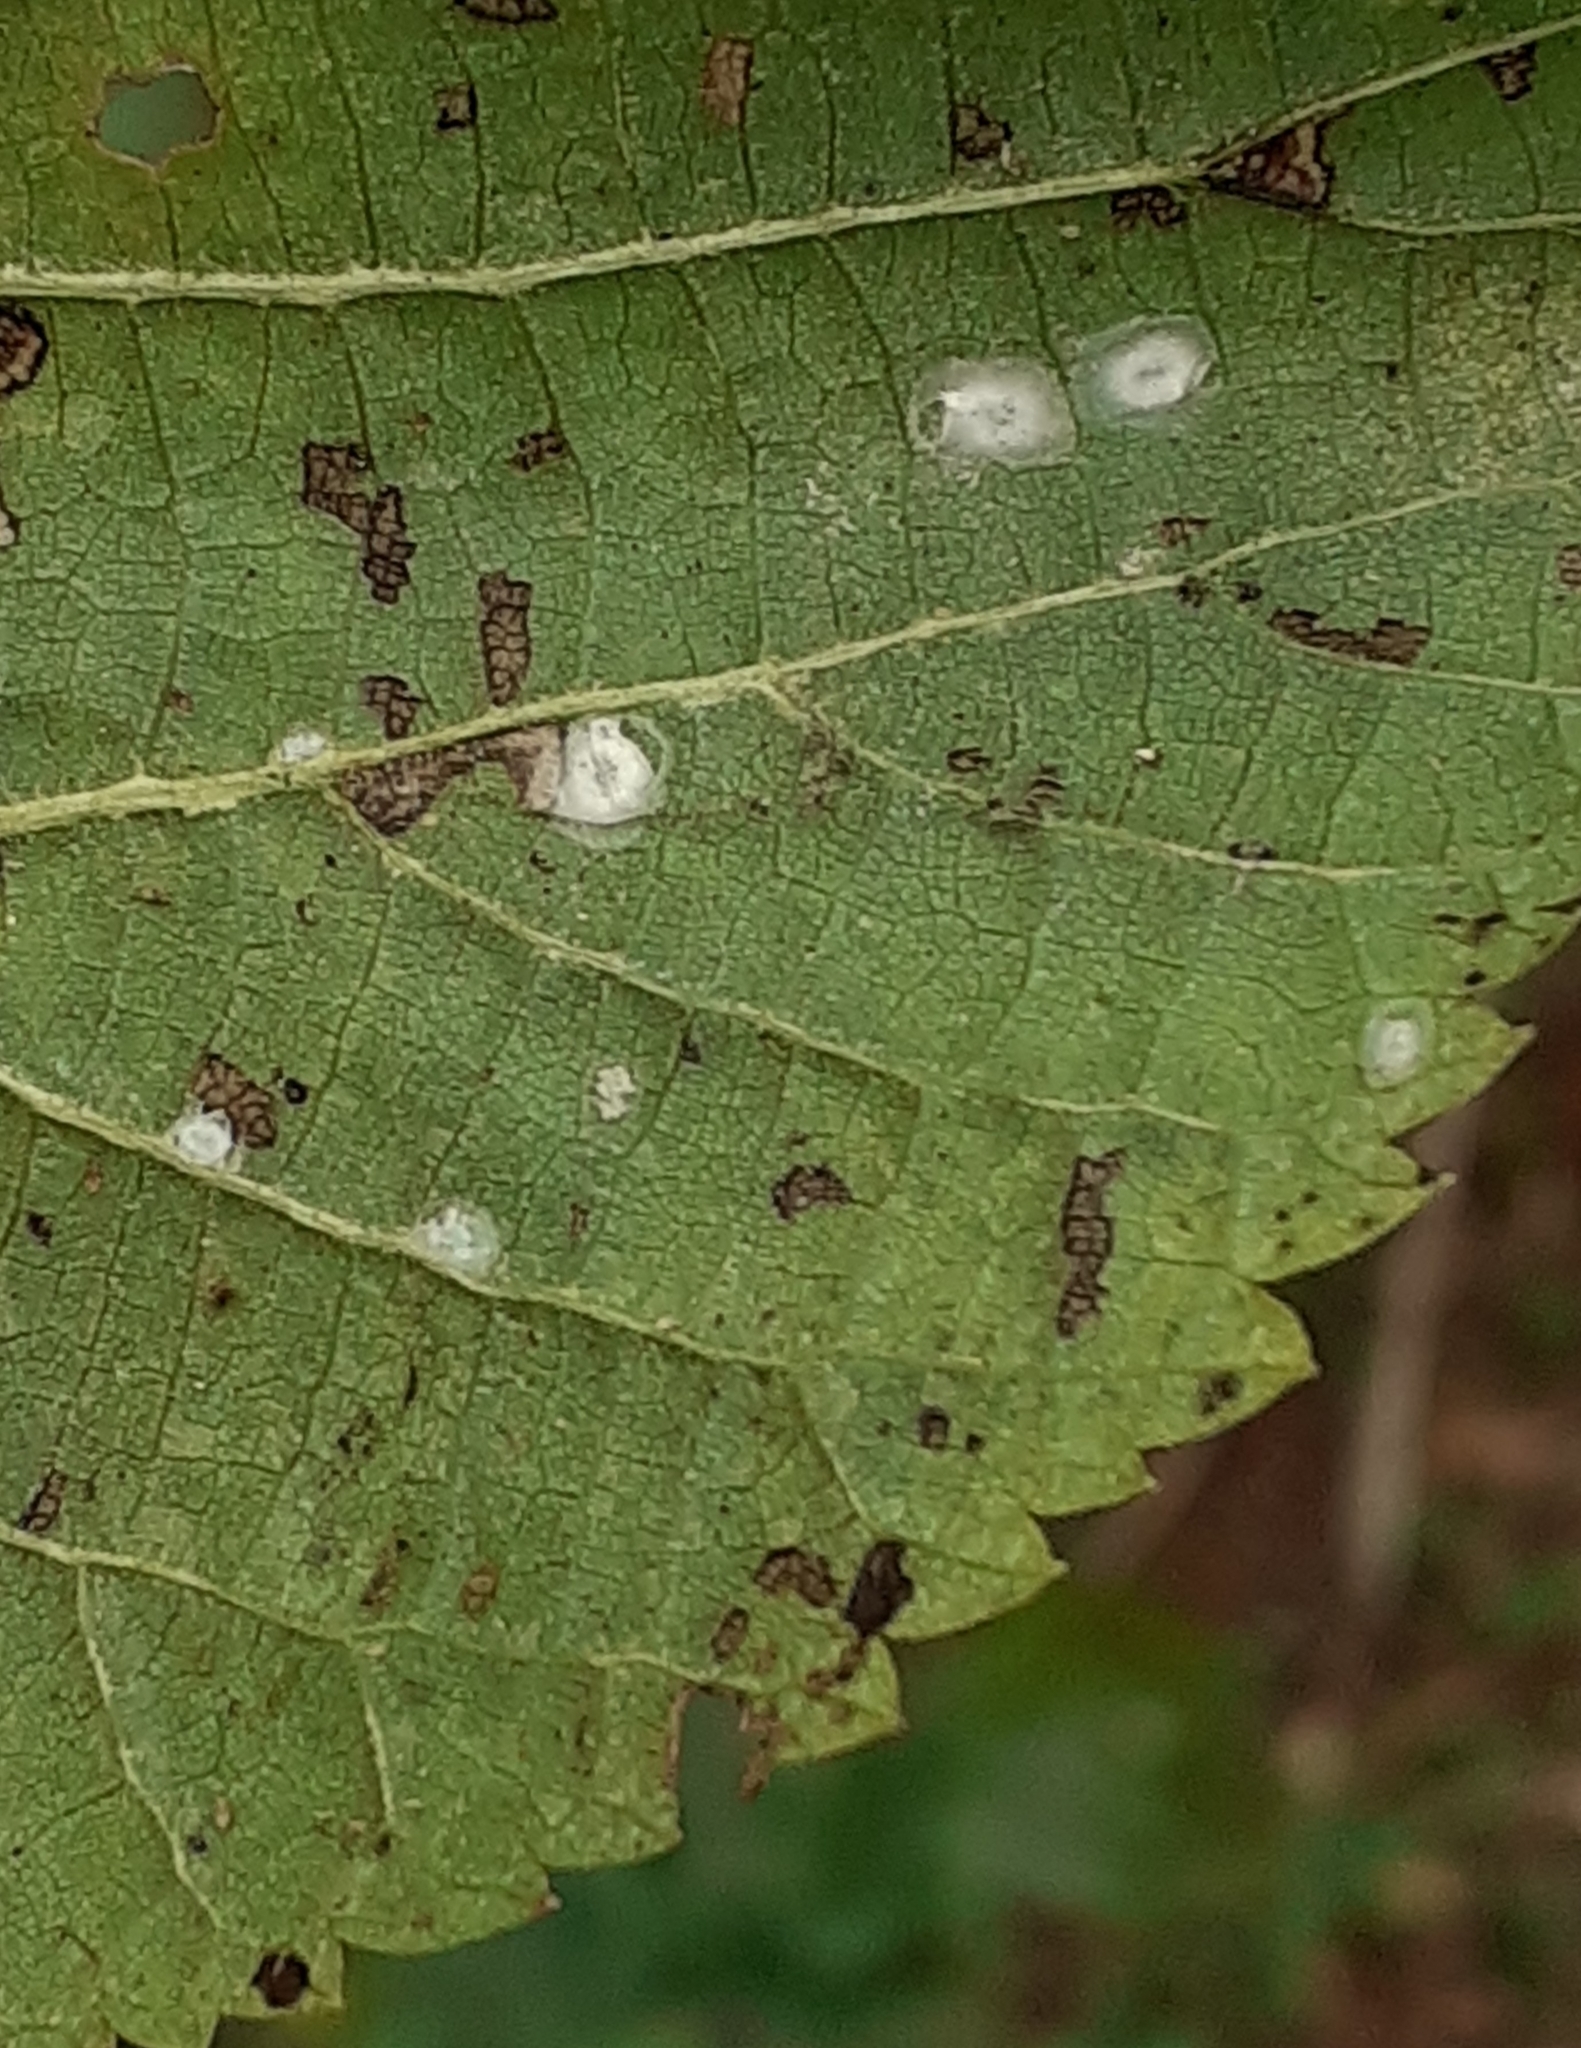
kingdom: Animalia
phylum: Arthropoda
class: Insecta
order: Lepidoptera
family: Bucculatricidae
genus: Bucculatrix
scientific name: Bucculatrix thoracella
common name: Lime bent-wing
